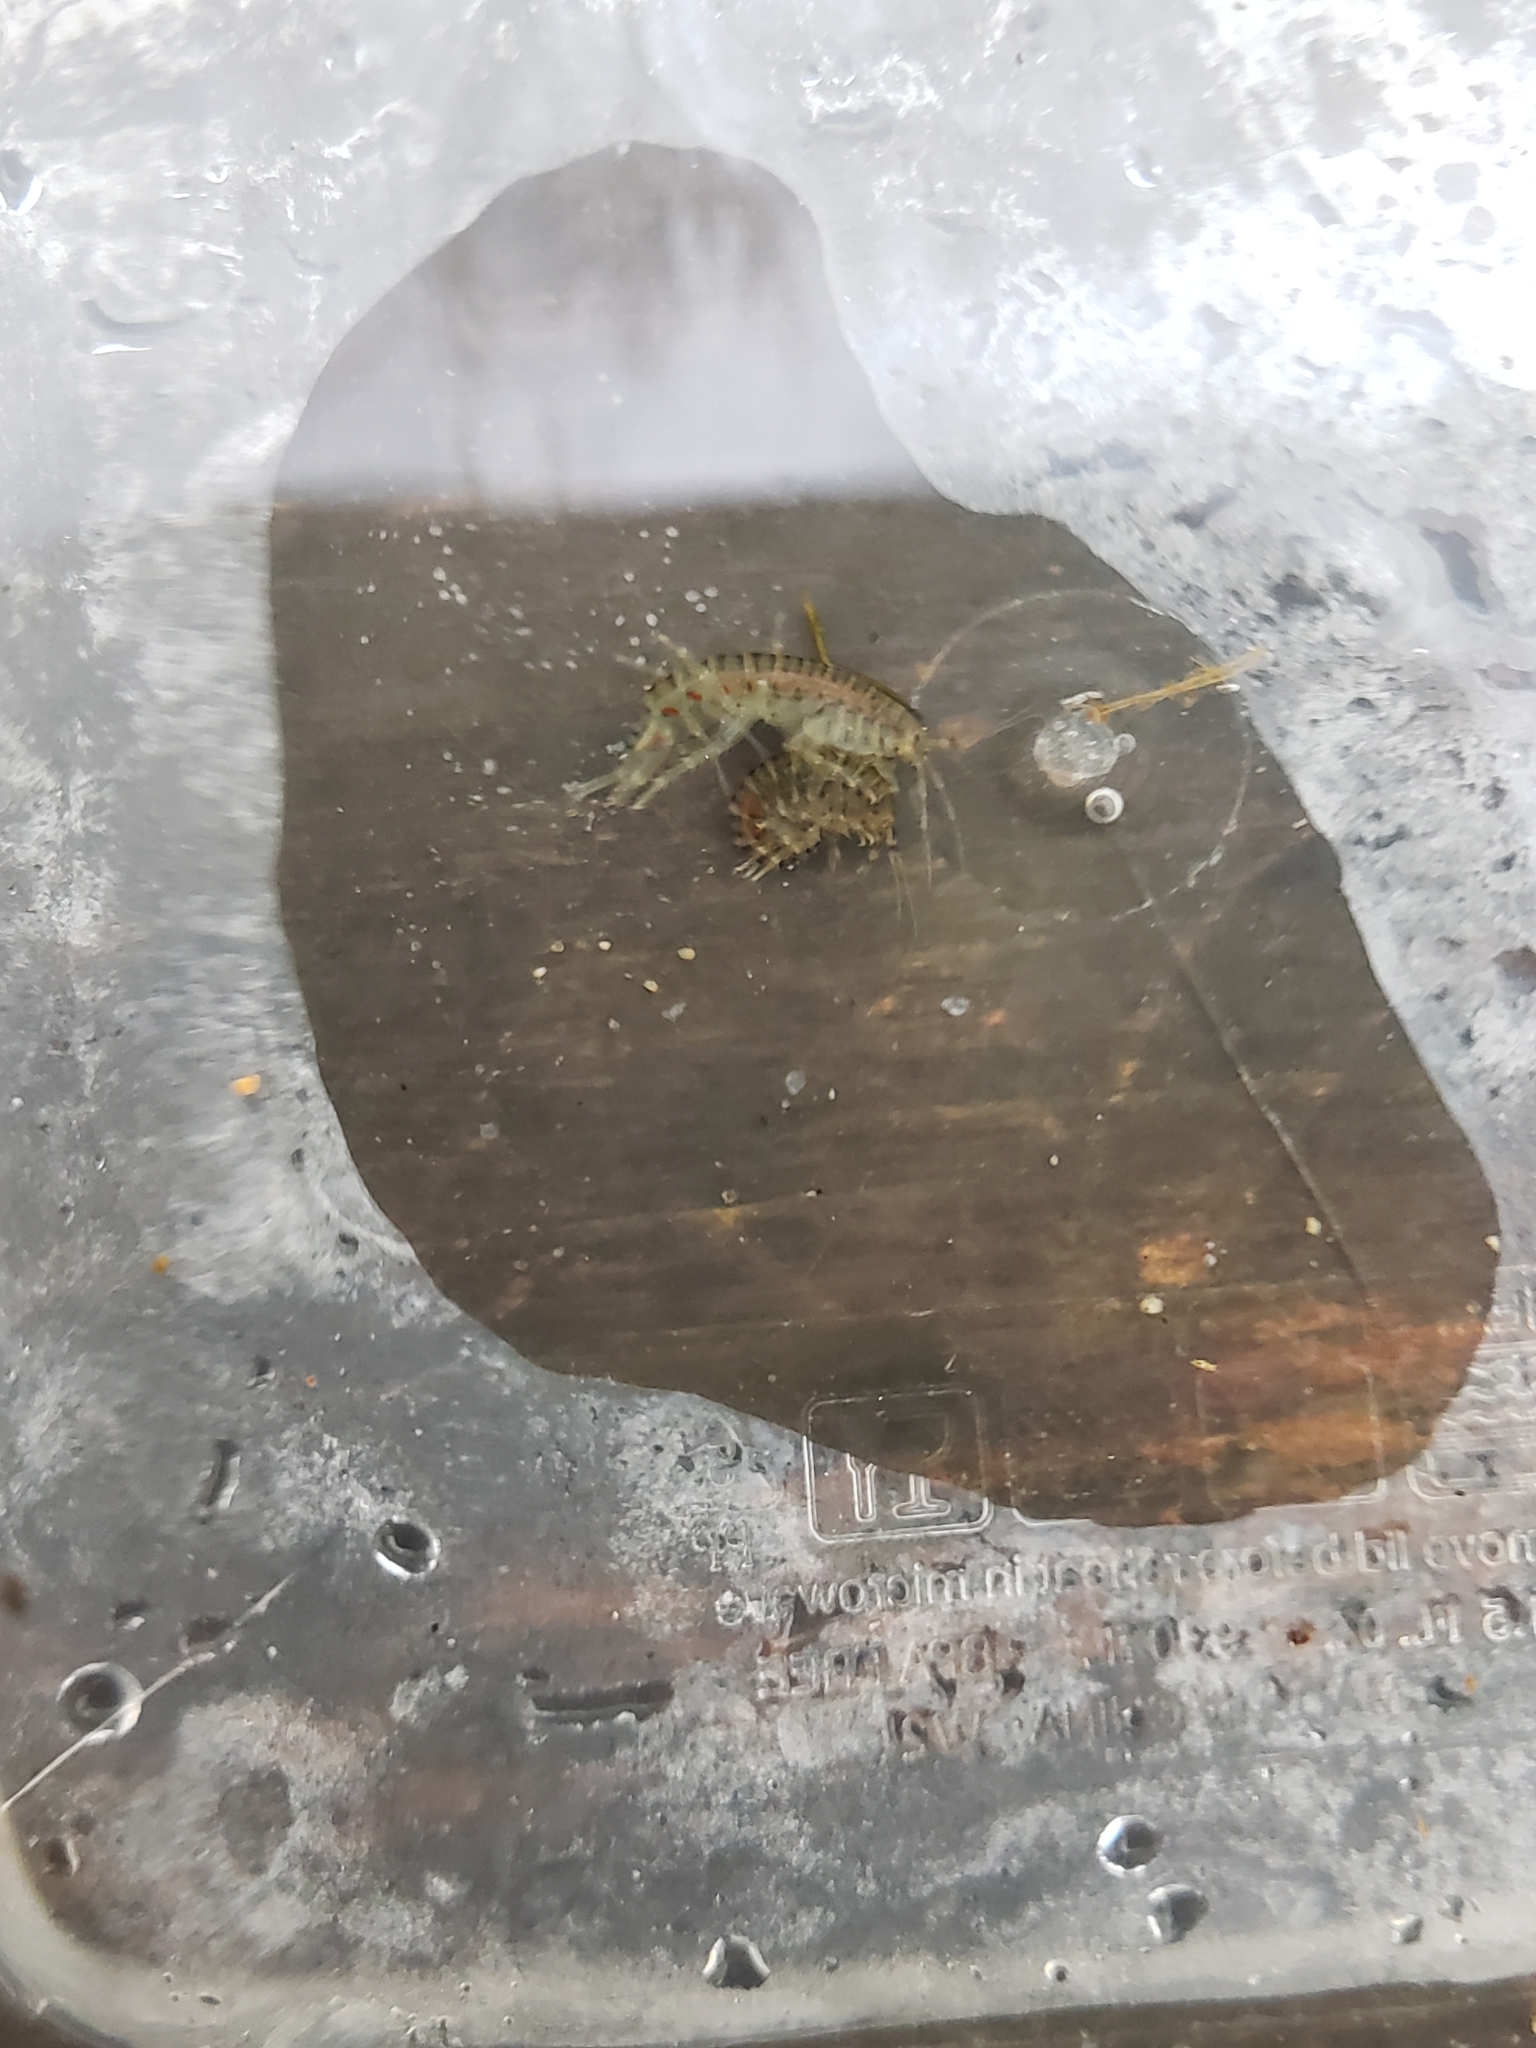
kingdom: Animalia
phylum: Arthropoda
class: Malacostraca
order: Amphipoda
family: Gammaridae
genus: Gammarus
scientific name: Gammarus fasciatus
